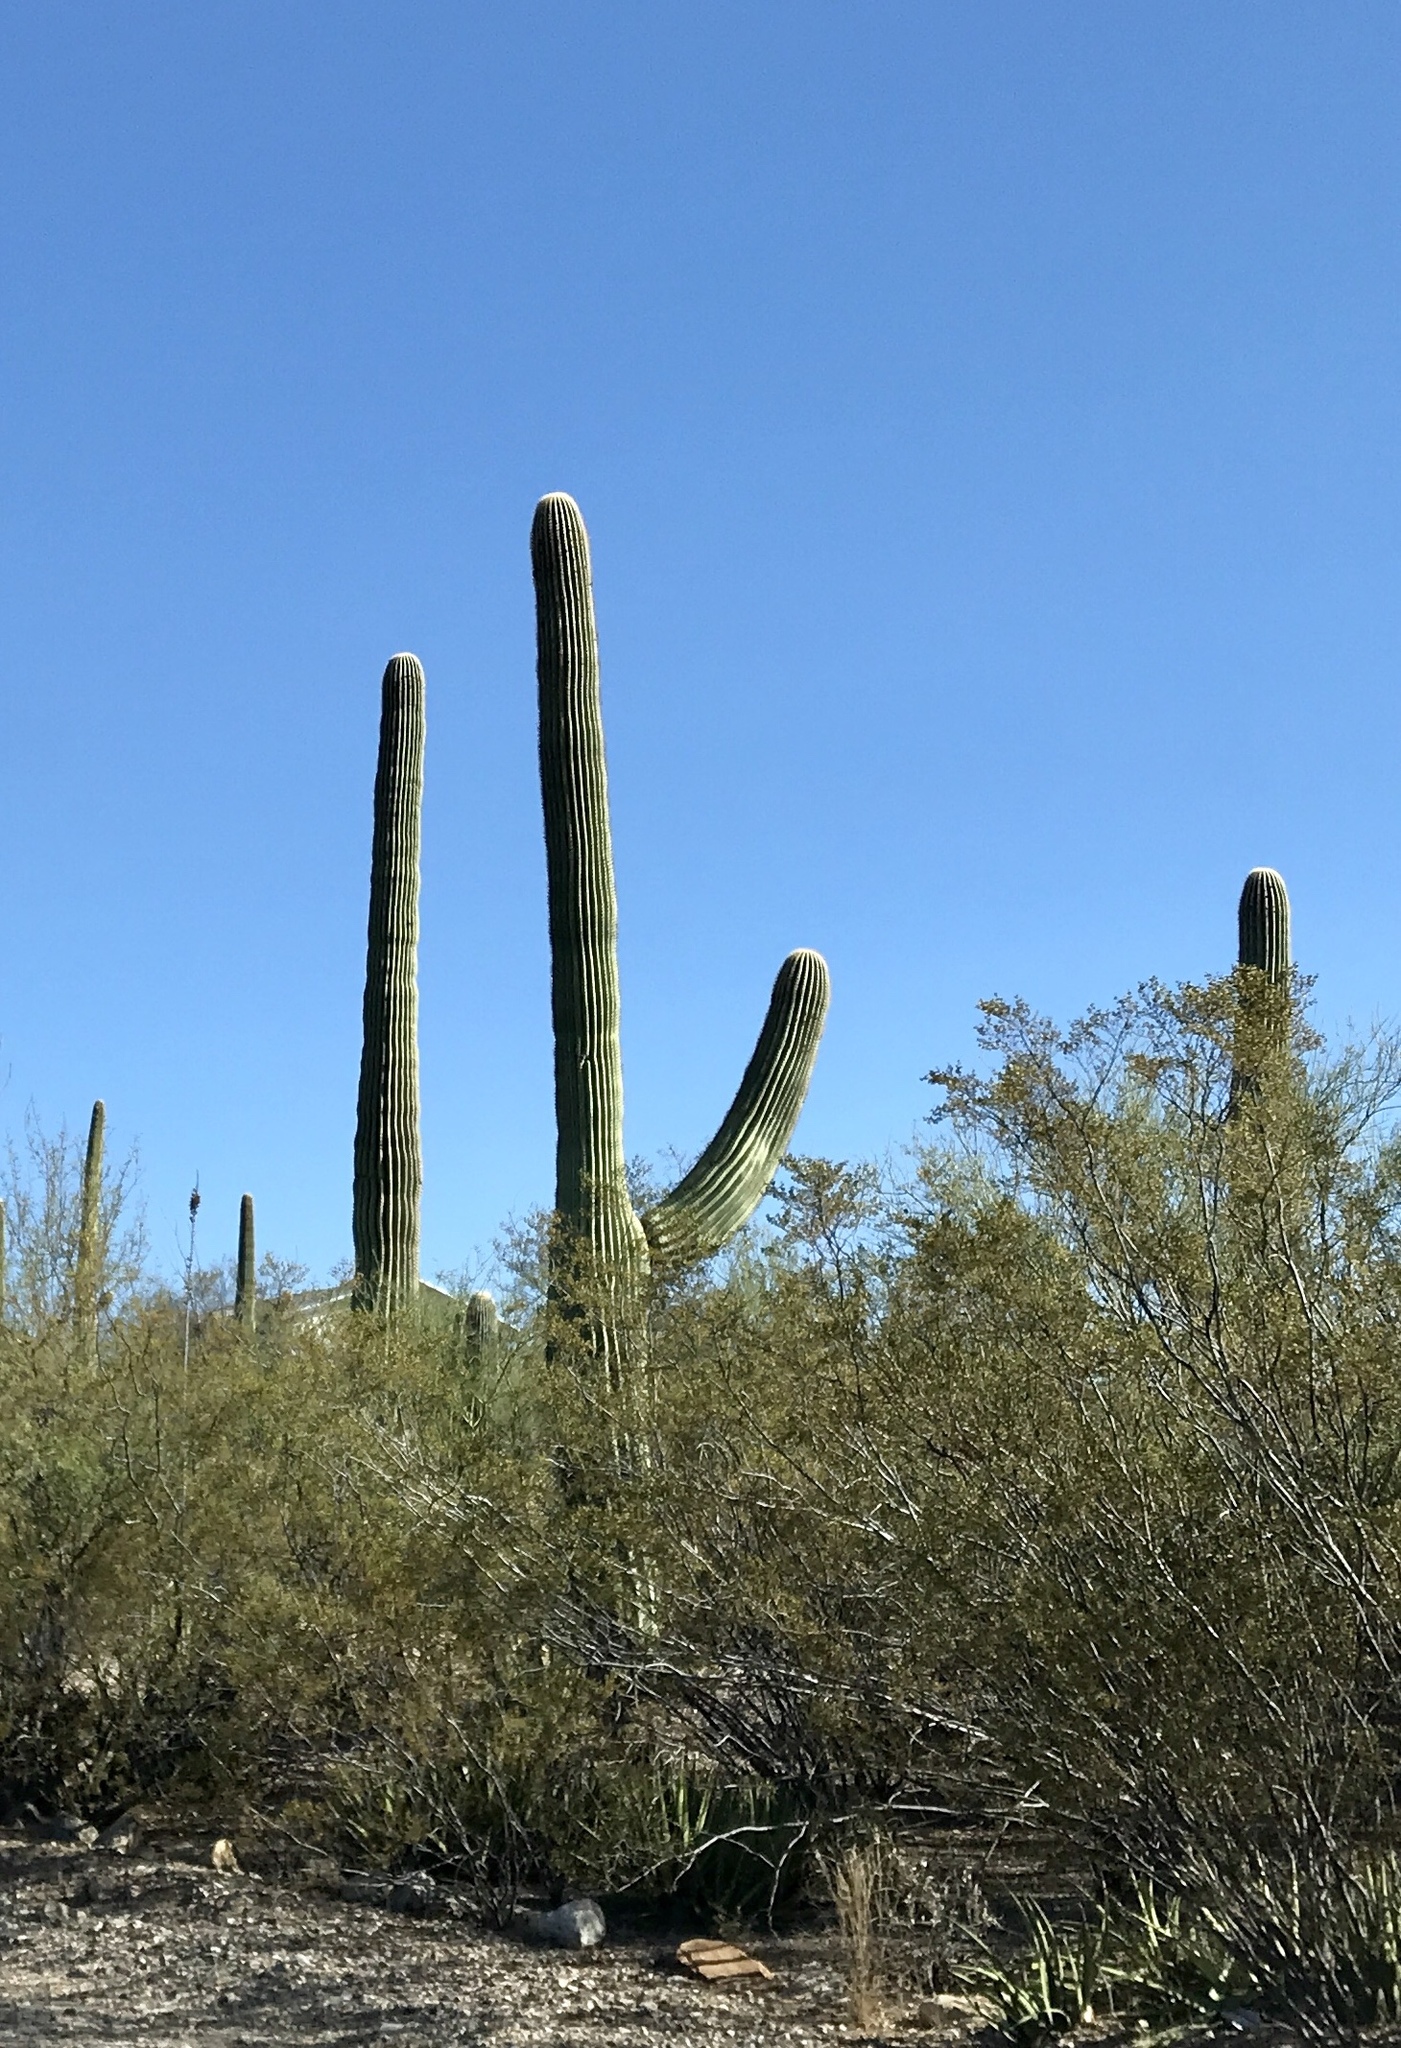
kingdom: Plantae
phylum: Tracheophyta
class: Magnoliopsida
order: Caryophyllales
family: Cactaceae
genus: Carnegiea
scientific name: Carnegiea gigantea
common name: Saguaro
